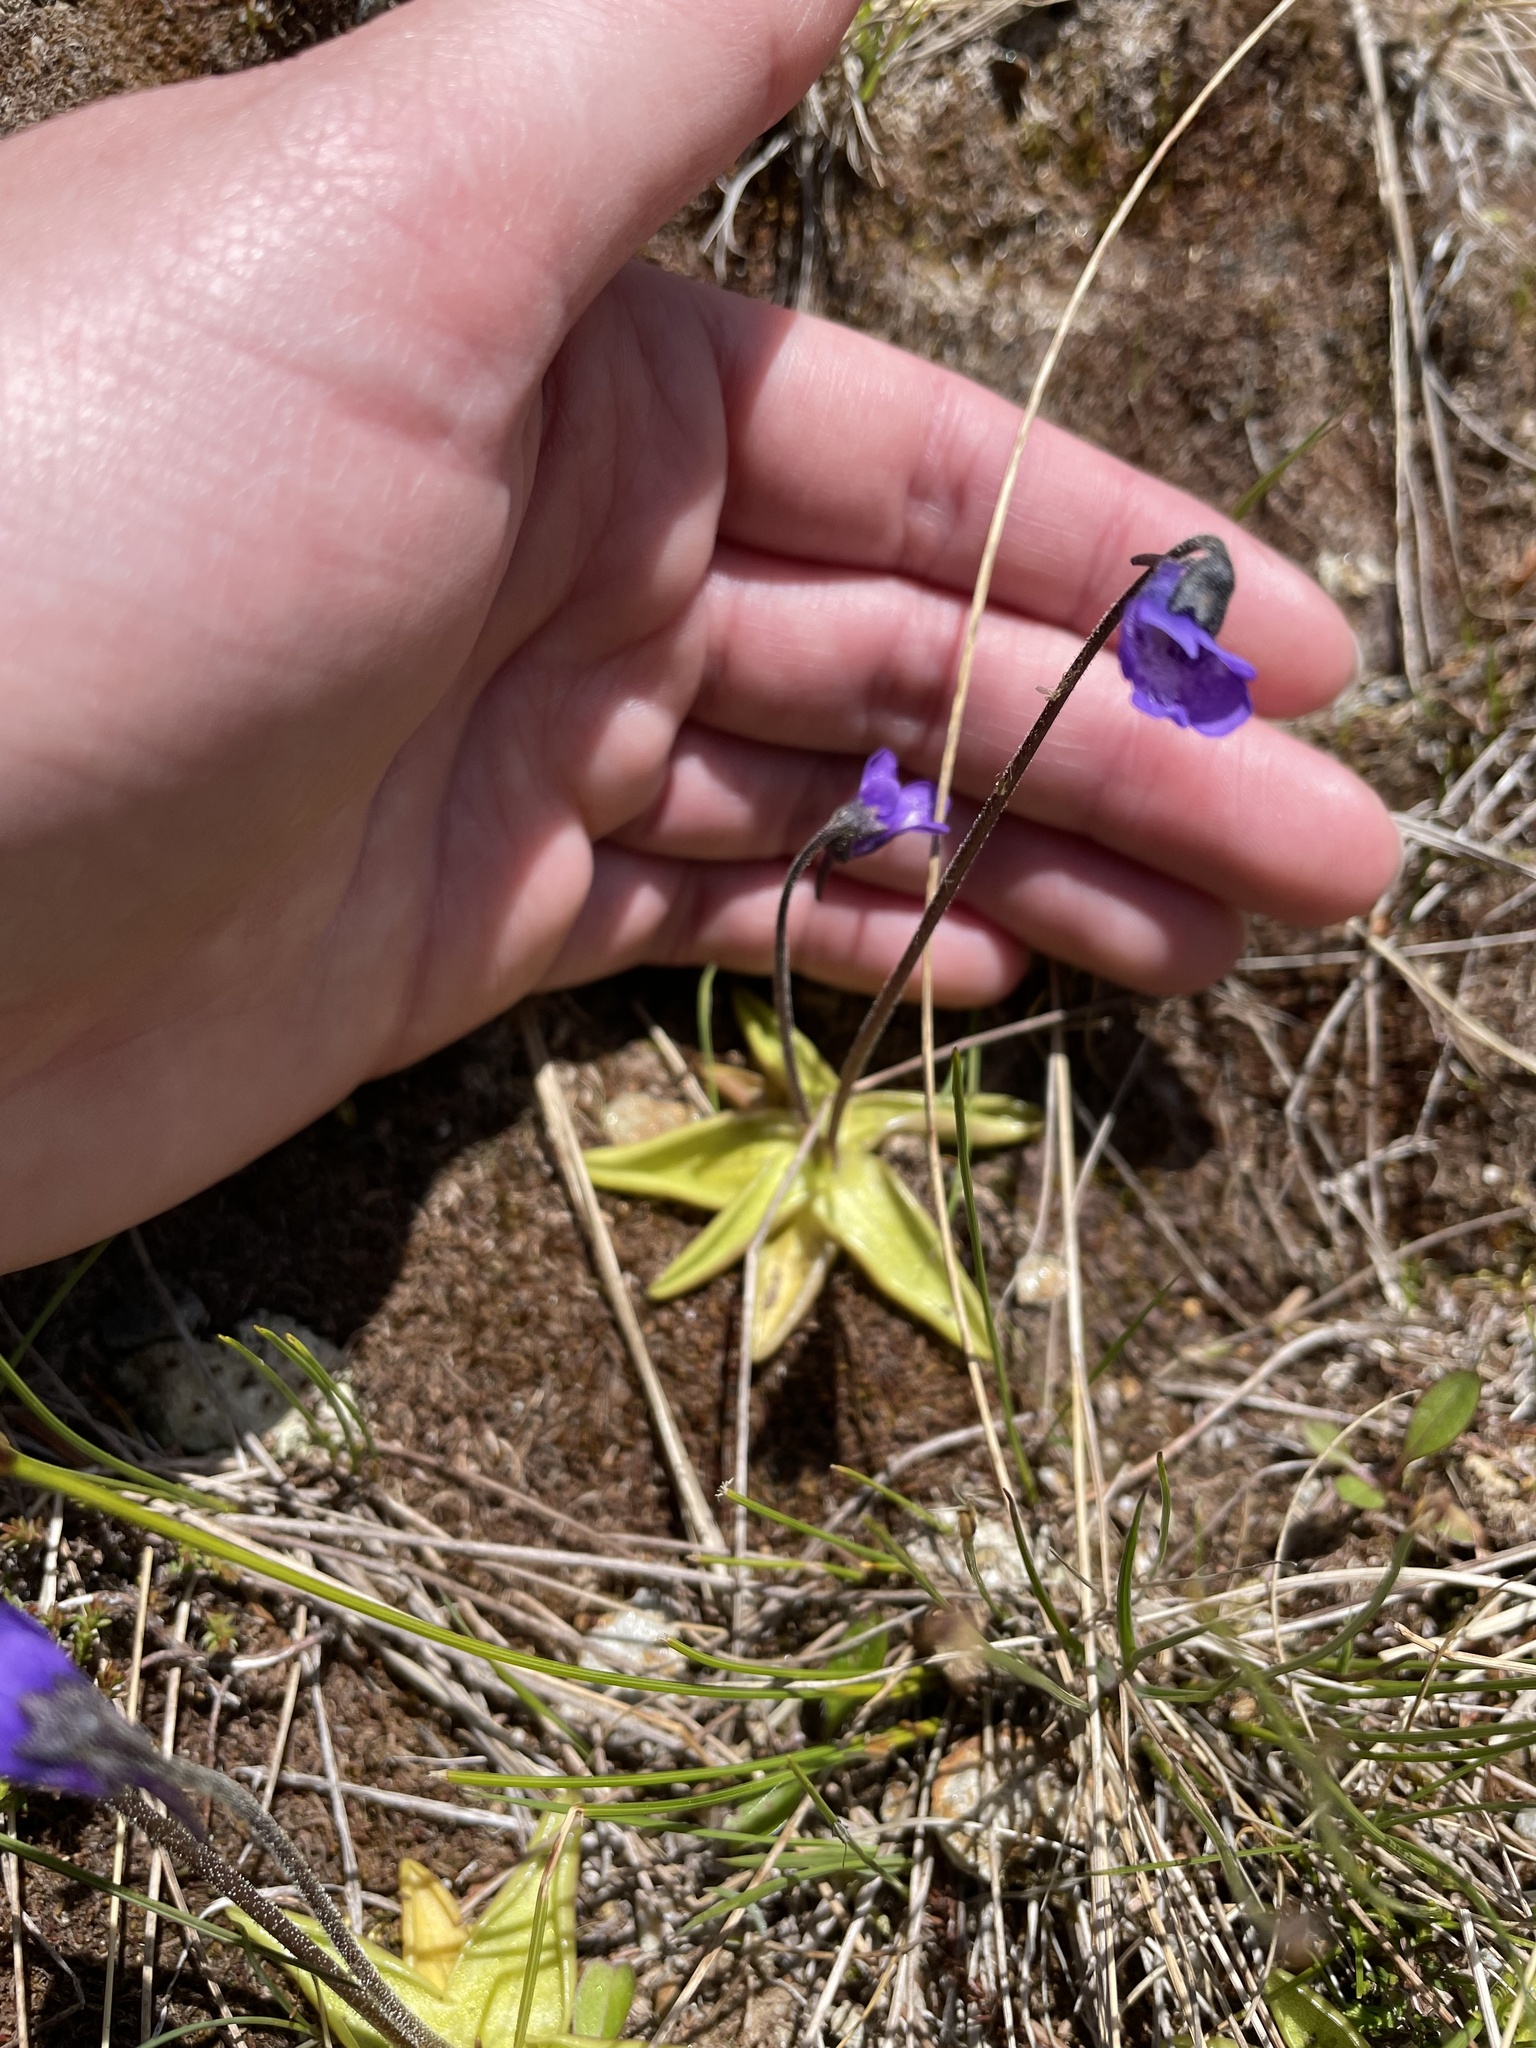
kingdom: Plantae
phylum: Tracheophyta
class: Magnoliopsida
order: Lamiales
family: Lentibulariaceae
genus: Pinguicula
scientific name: Pinguicula vulgaris
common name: Common butterwort
